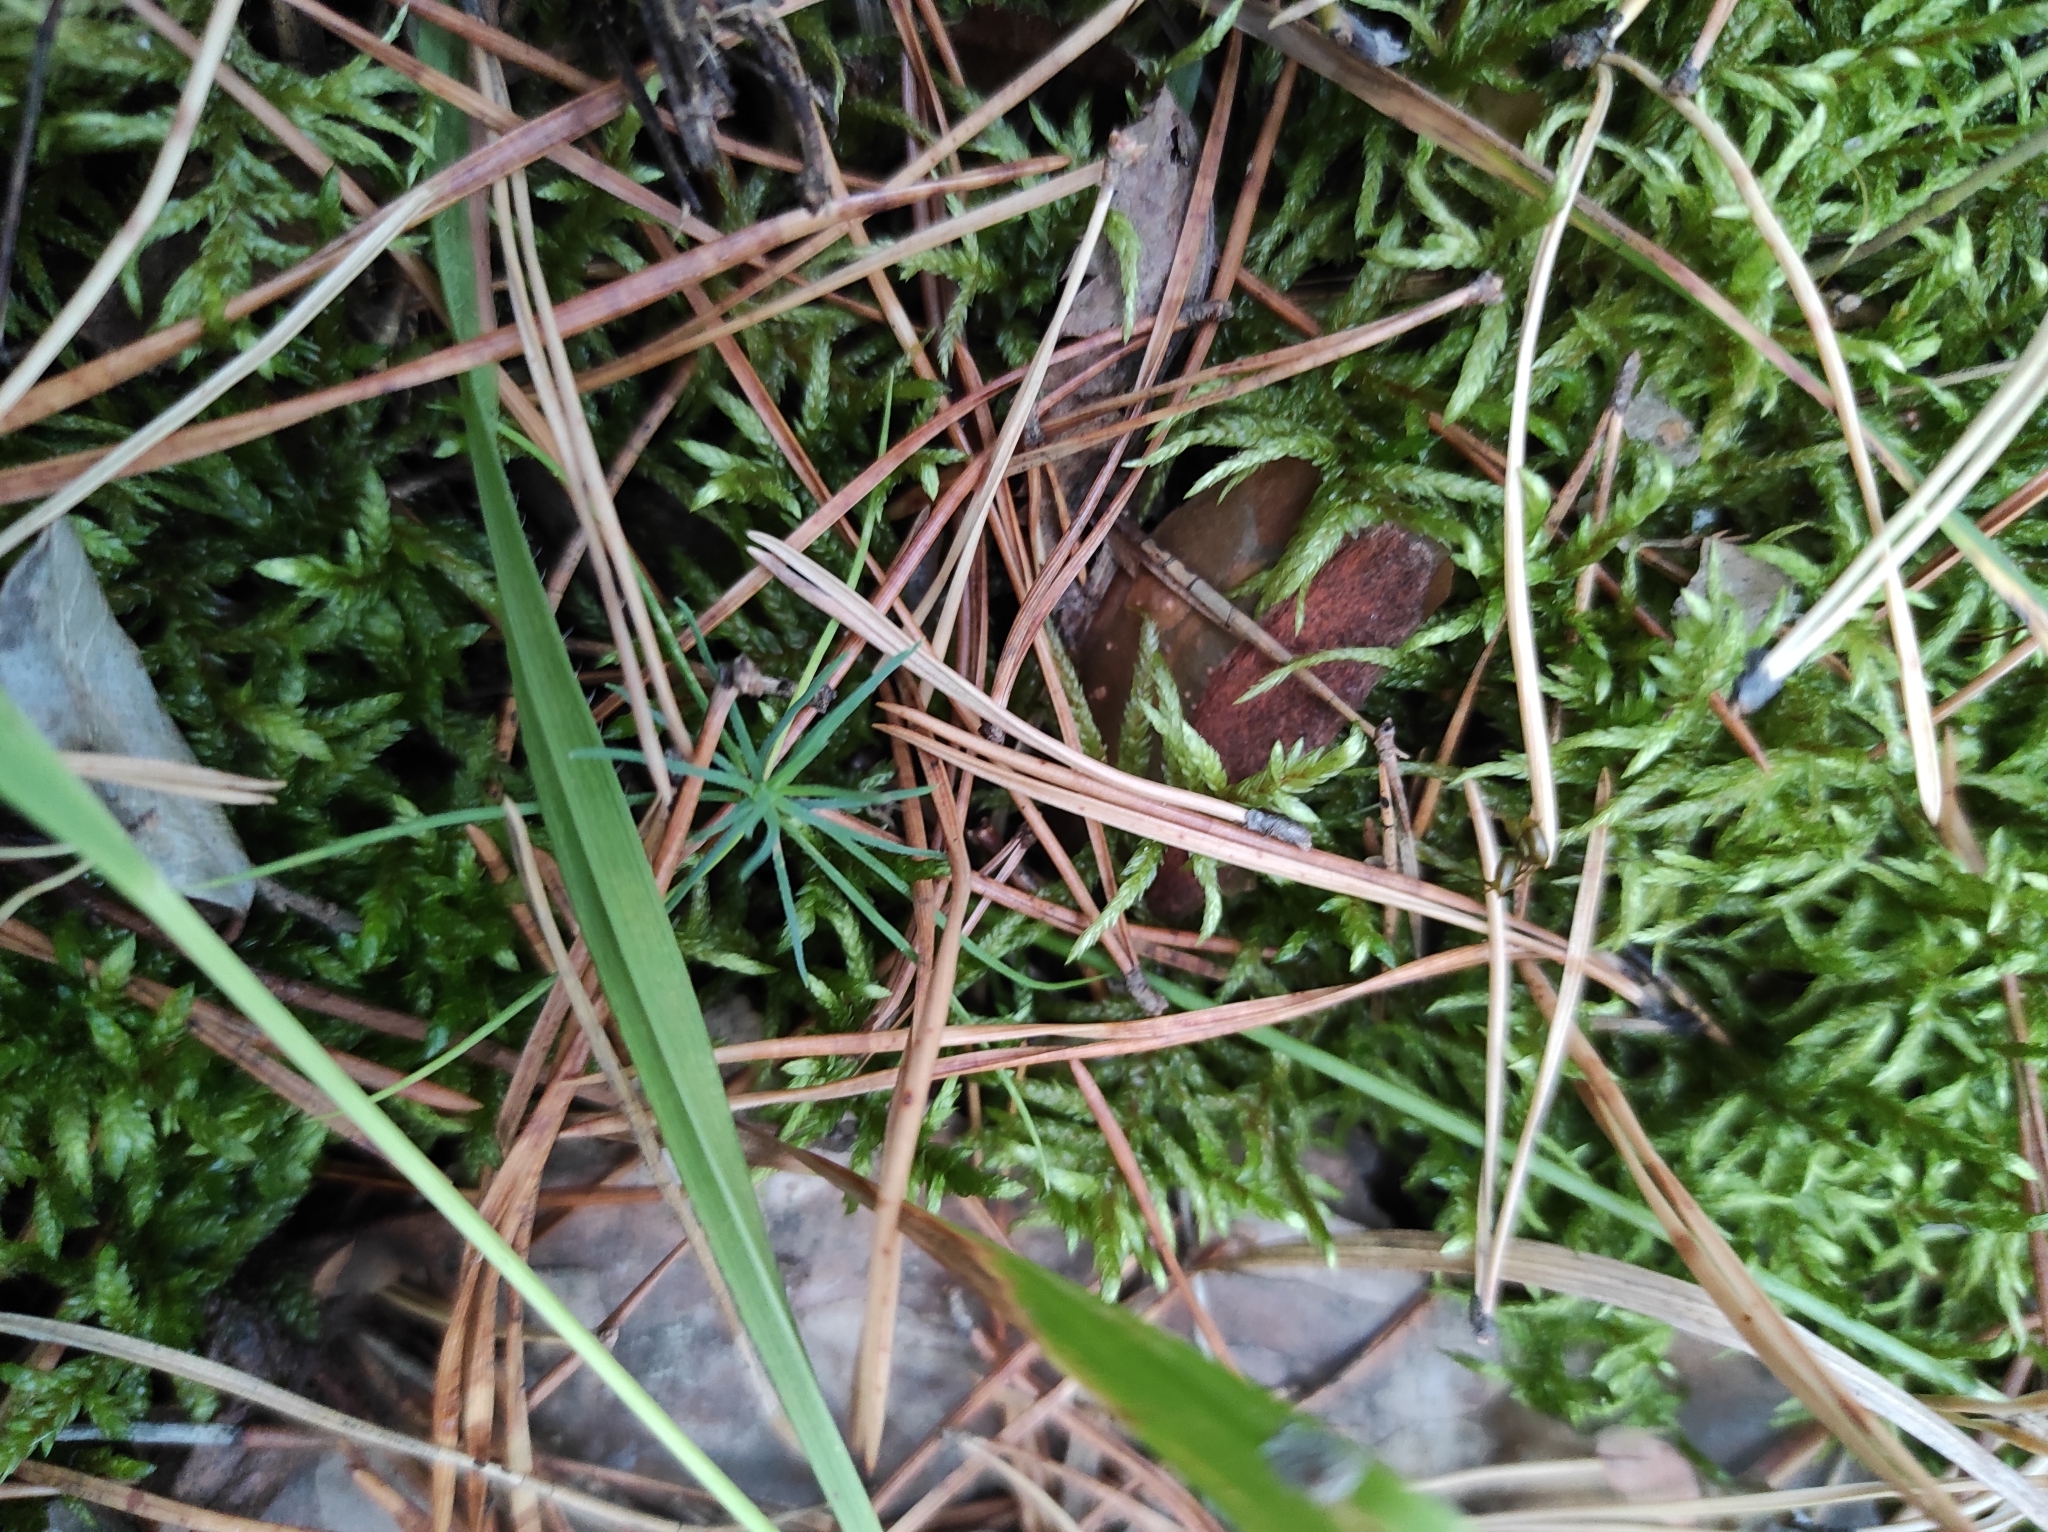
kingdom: Plantae
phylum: Tracheophyta
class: Pinopsida
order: Pinales
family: Pinaceae
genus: Pinus
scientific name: Pinus sylvestris
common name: Scots pine
